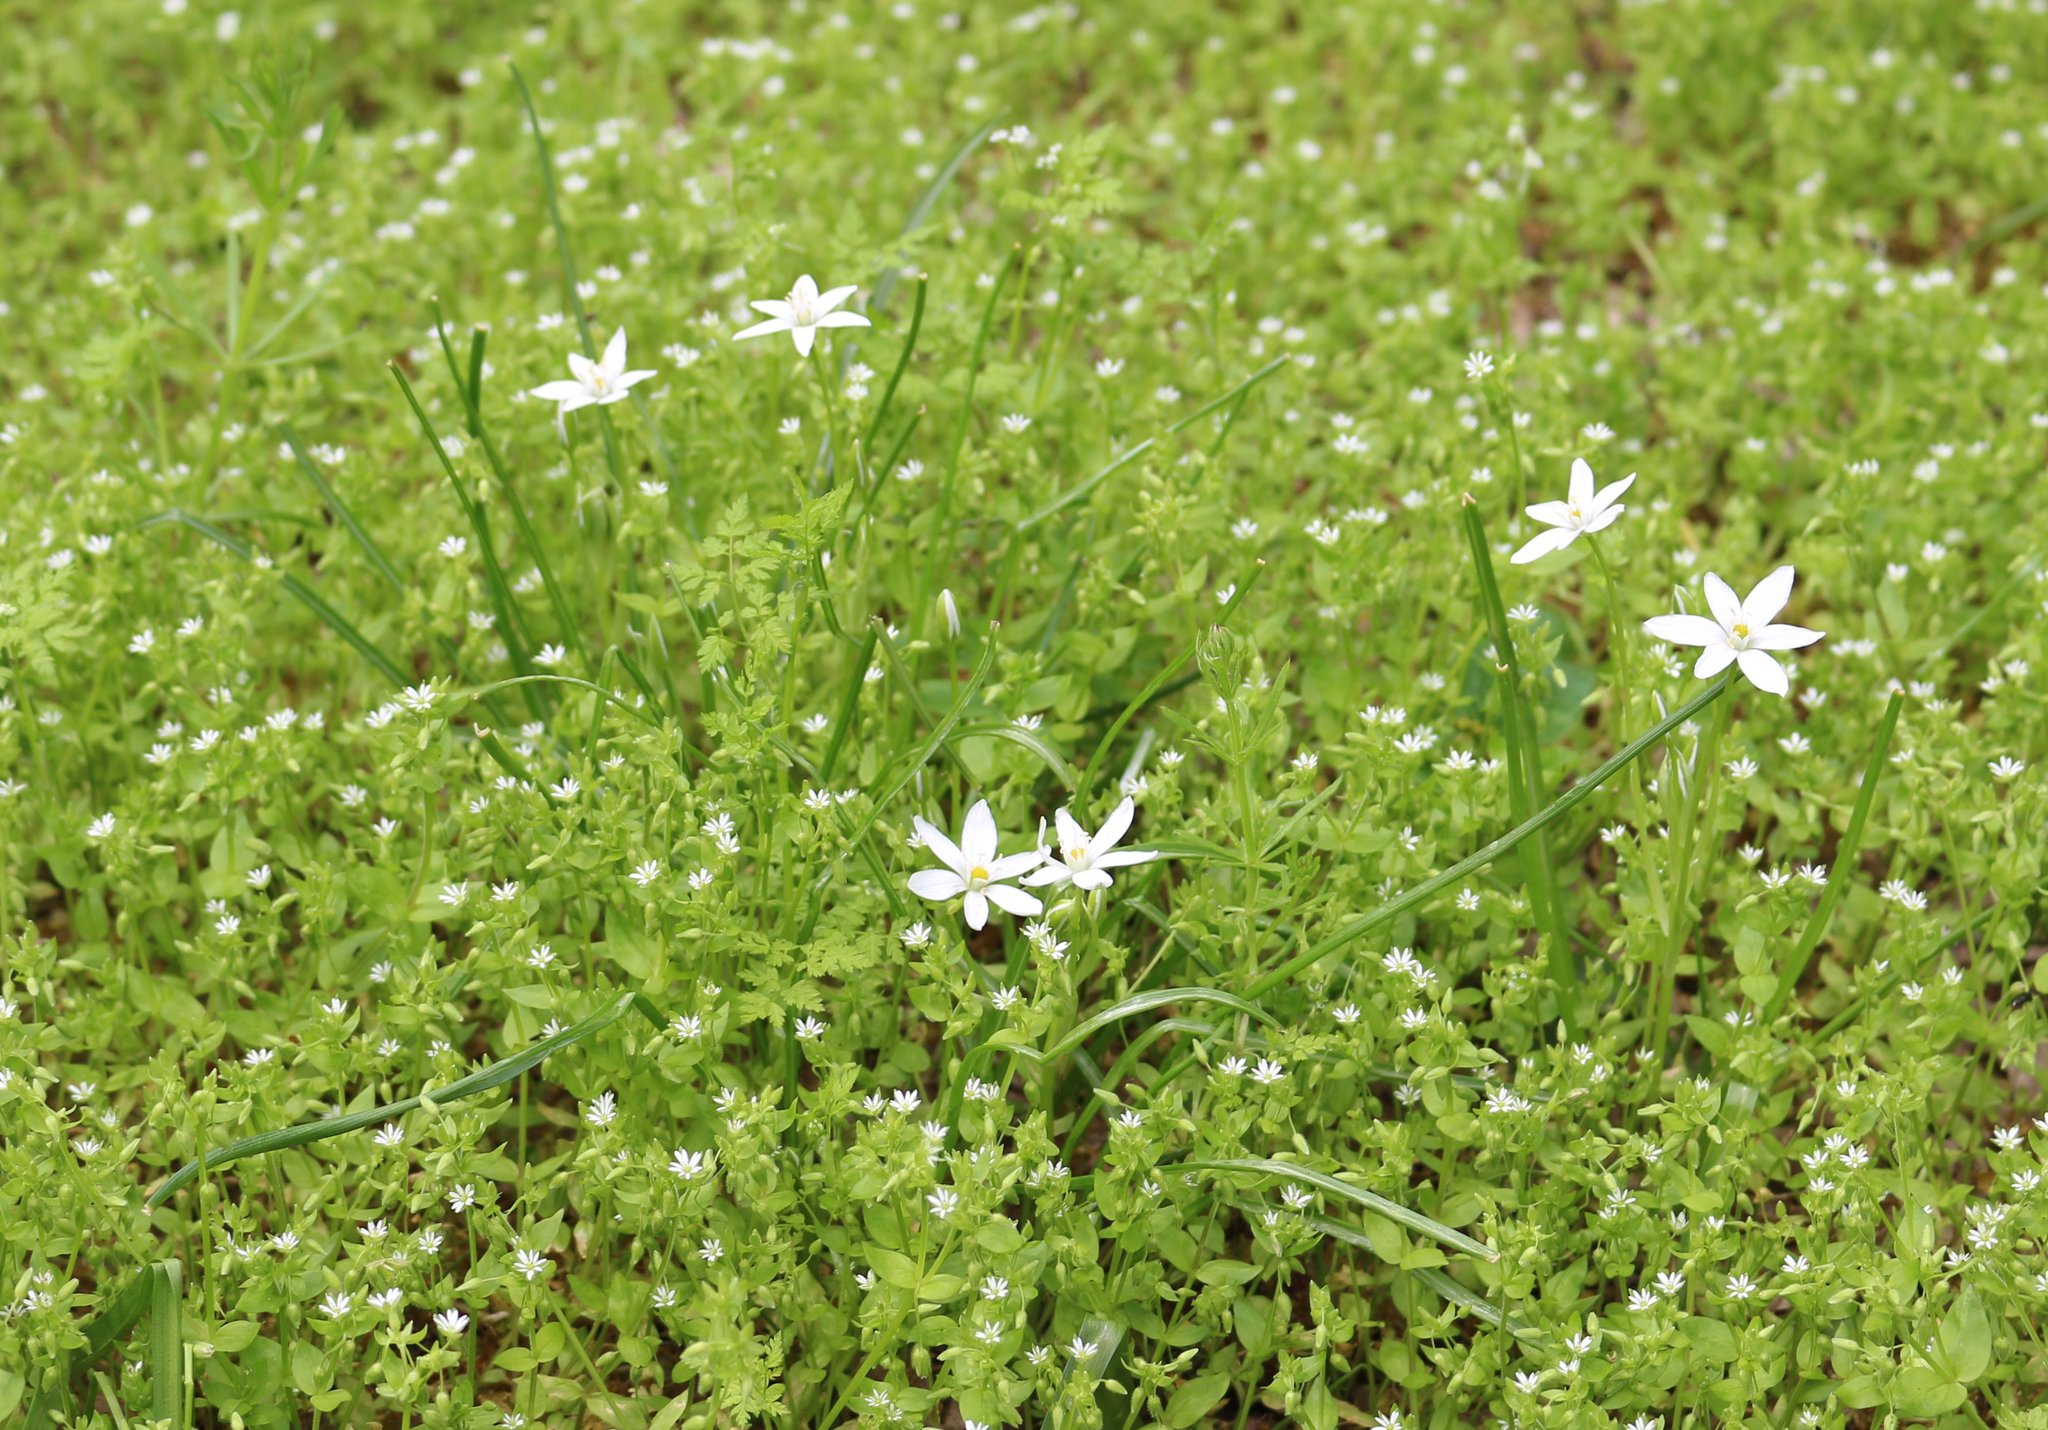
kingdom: Plantae
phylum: Tracheophyta
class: Liliopsida
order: Asparagales
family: Asparagaceae
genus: Ornithogalum
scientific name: Ornithogalum woronowii
